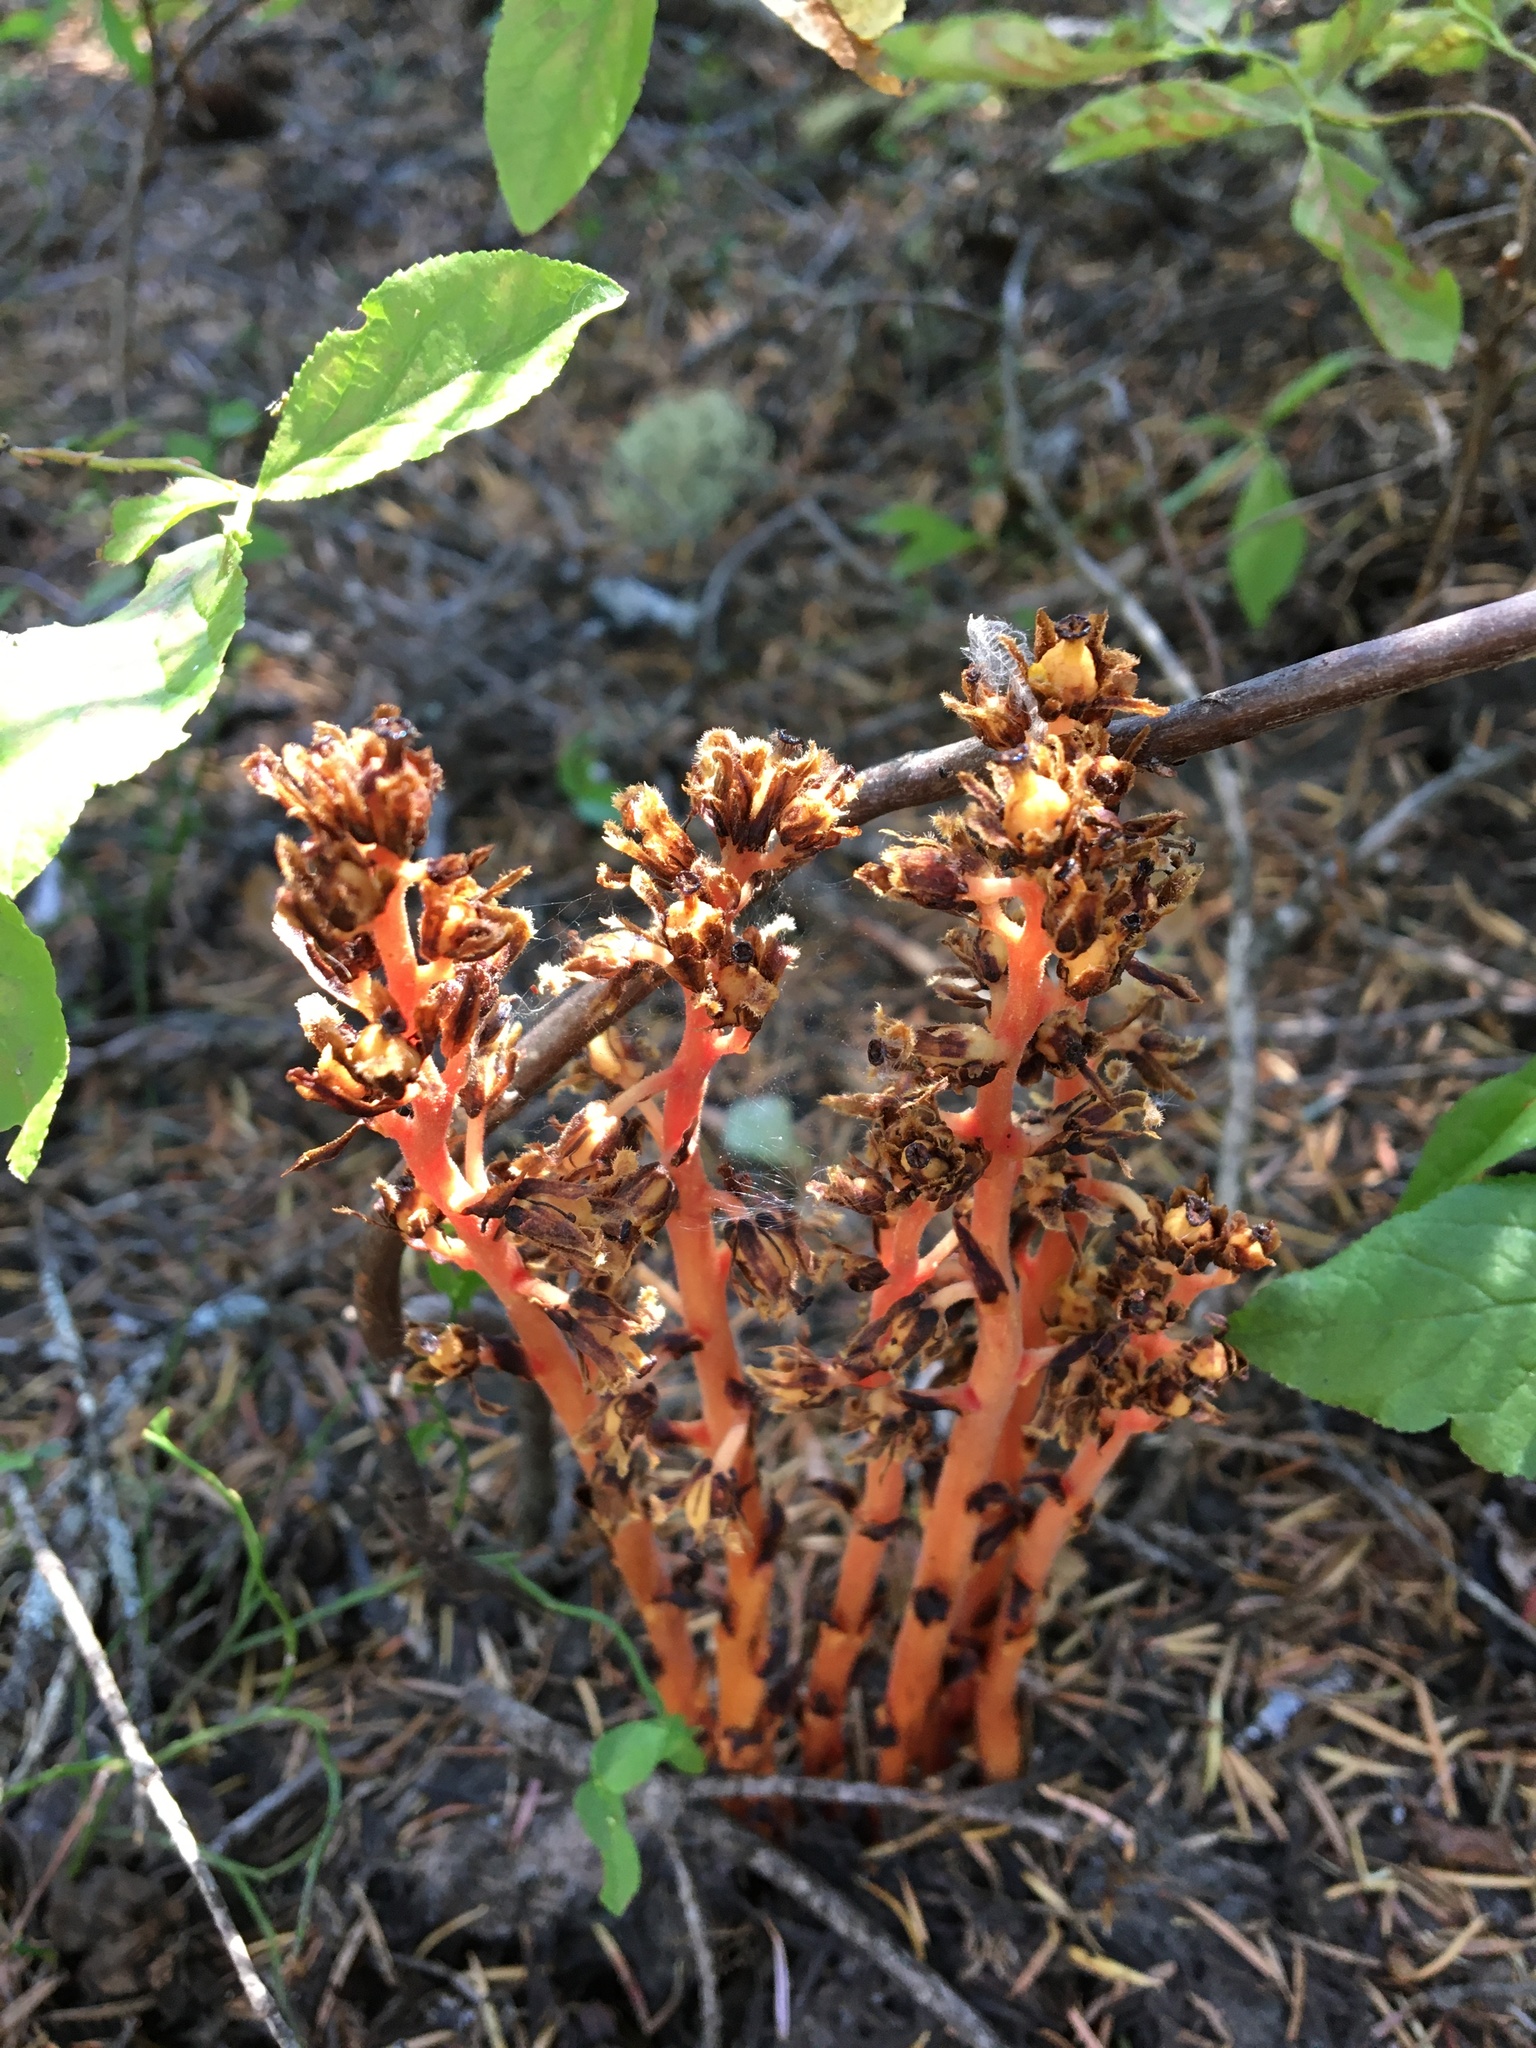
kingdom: Plantae
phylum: Tracheophyta
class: Magnoliopsida
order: Ericales
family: Ericaceae
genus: Hypopitys
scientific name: Hypopitys monotropa
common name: Yellow bird's-nest
